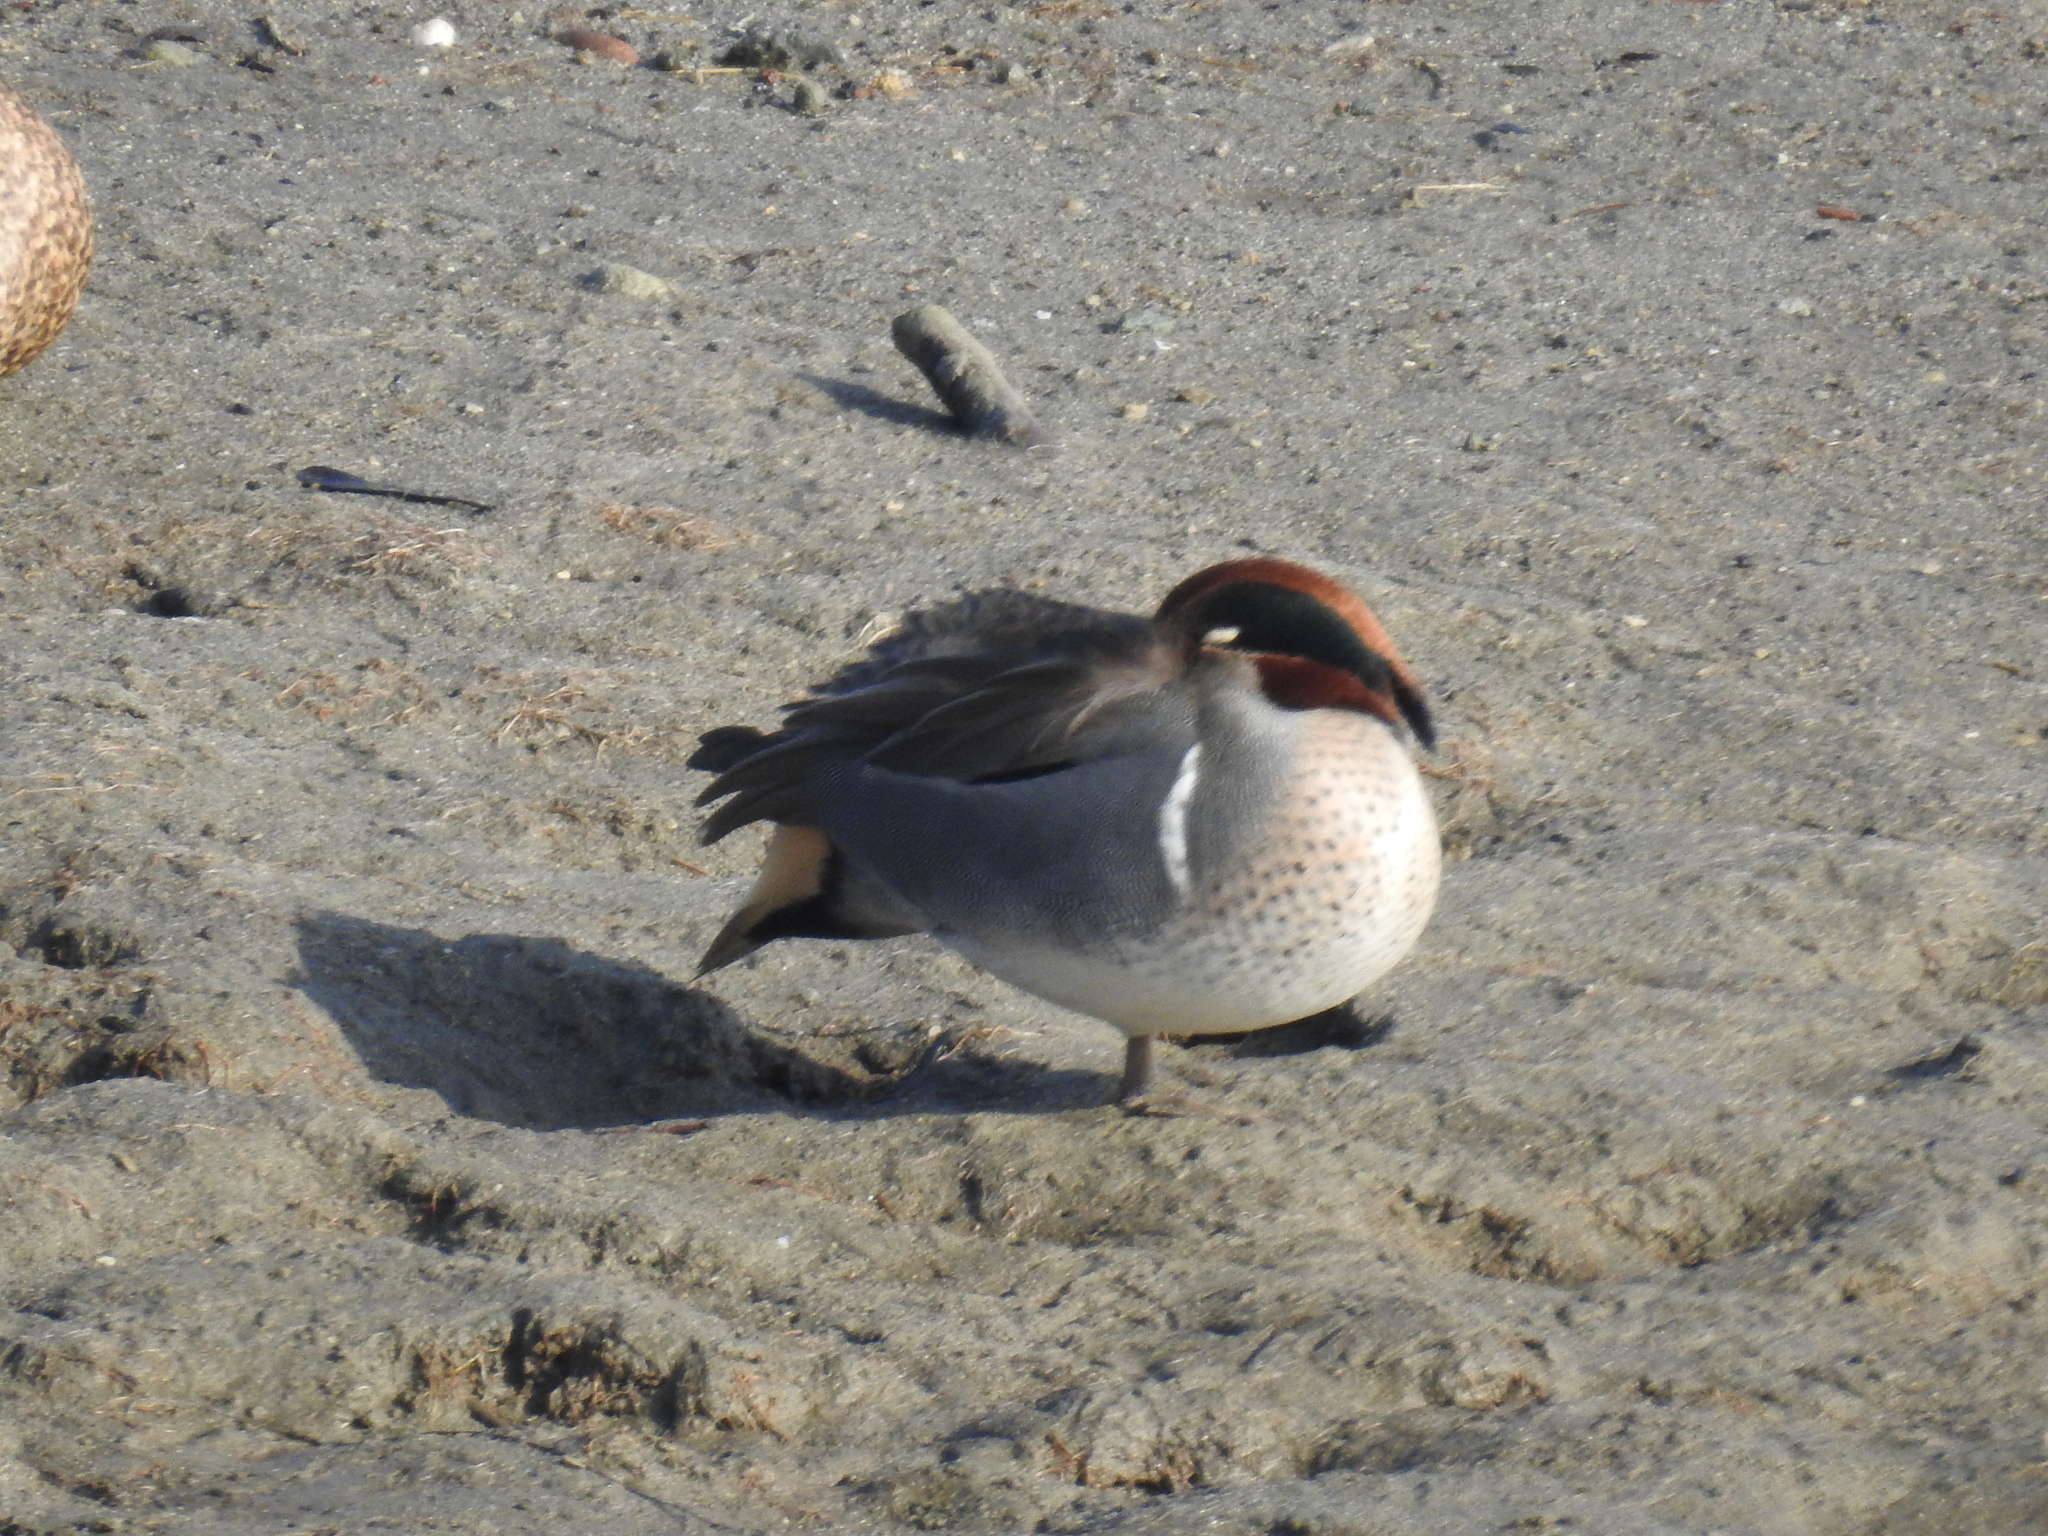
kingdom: Animalia
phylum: Chordata
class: Aves
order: Anseriformes
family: Anatidae
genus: Anas
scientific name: Anas crecca
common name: Eurasian teal
